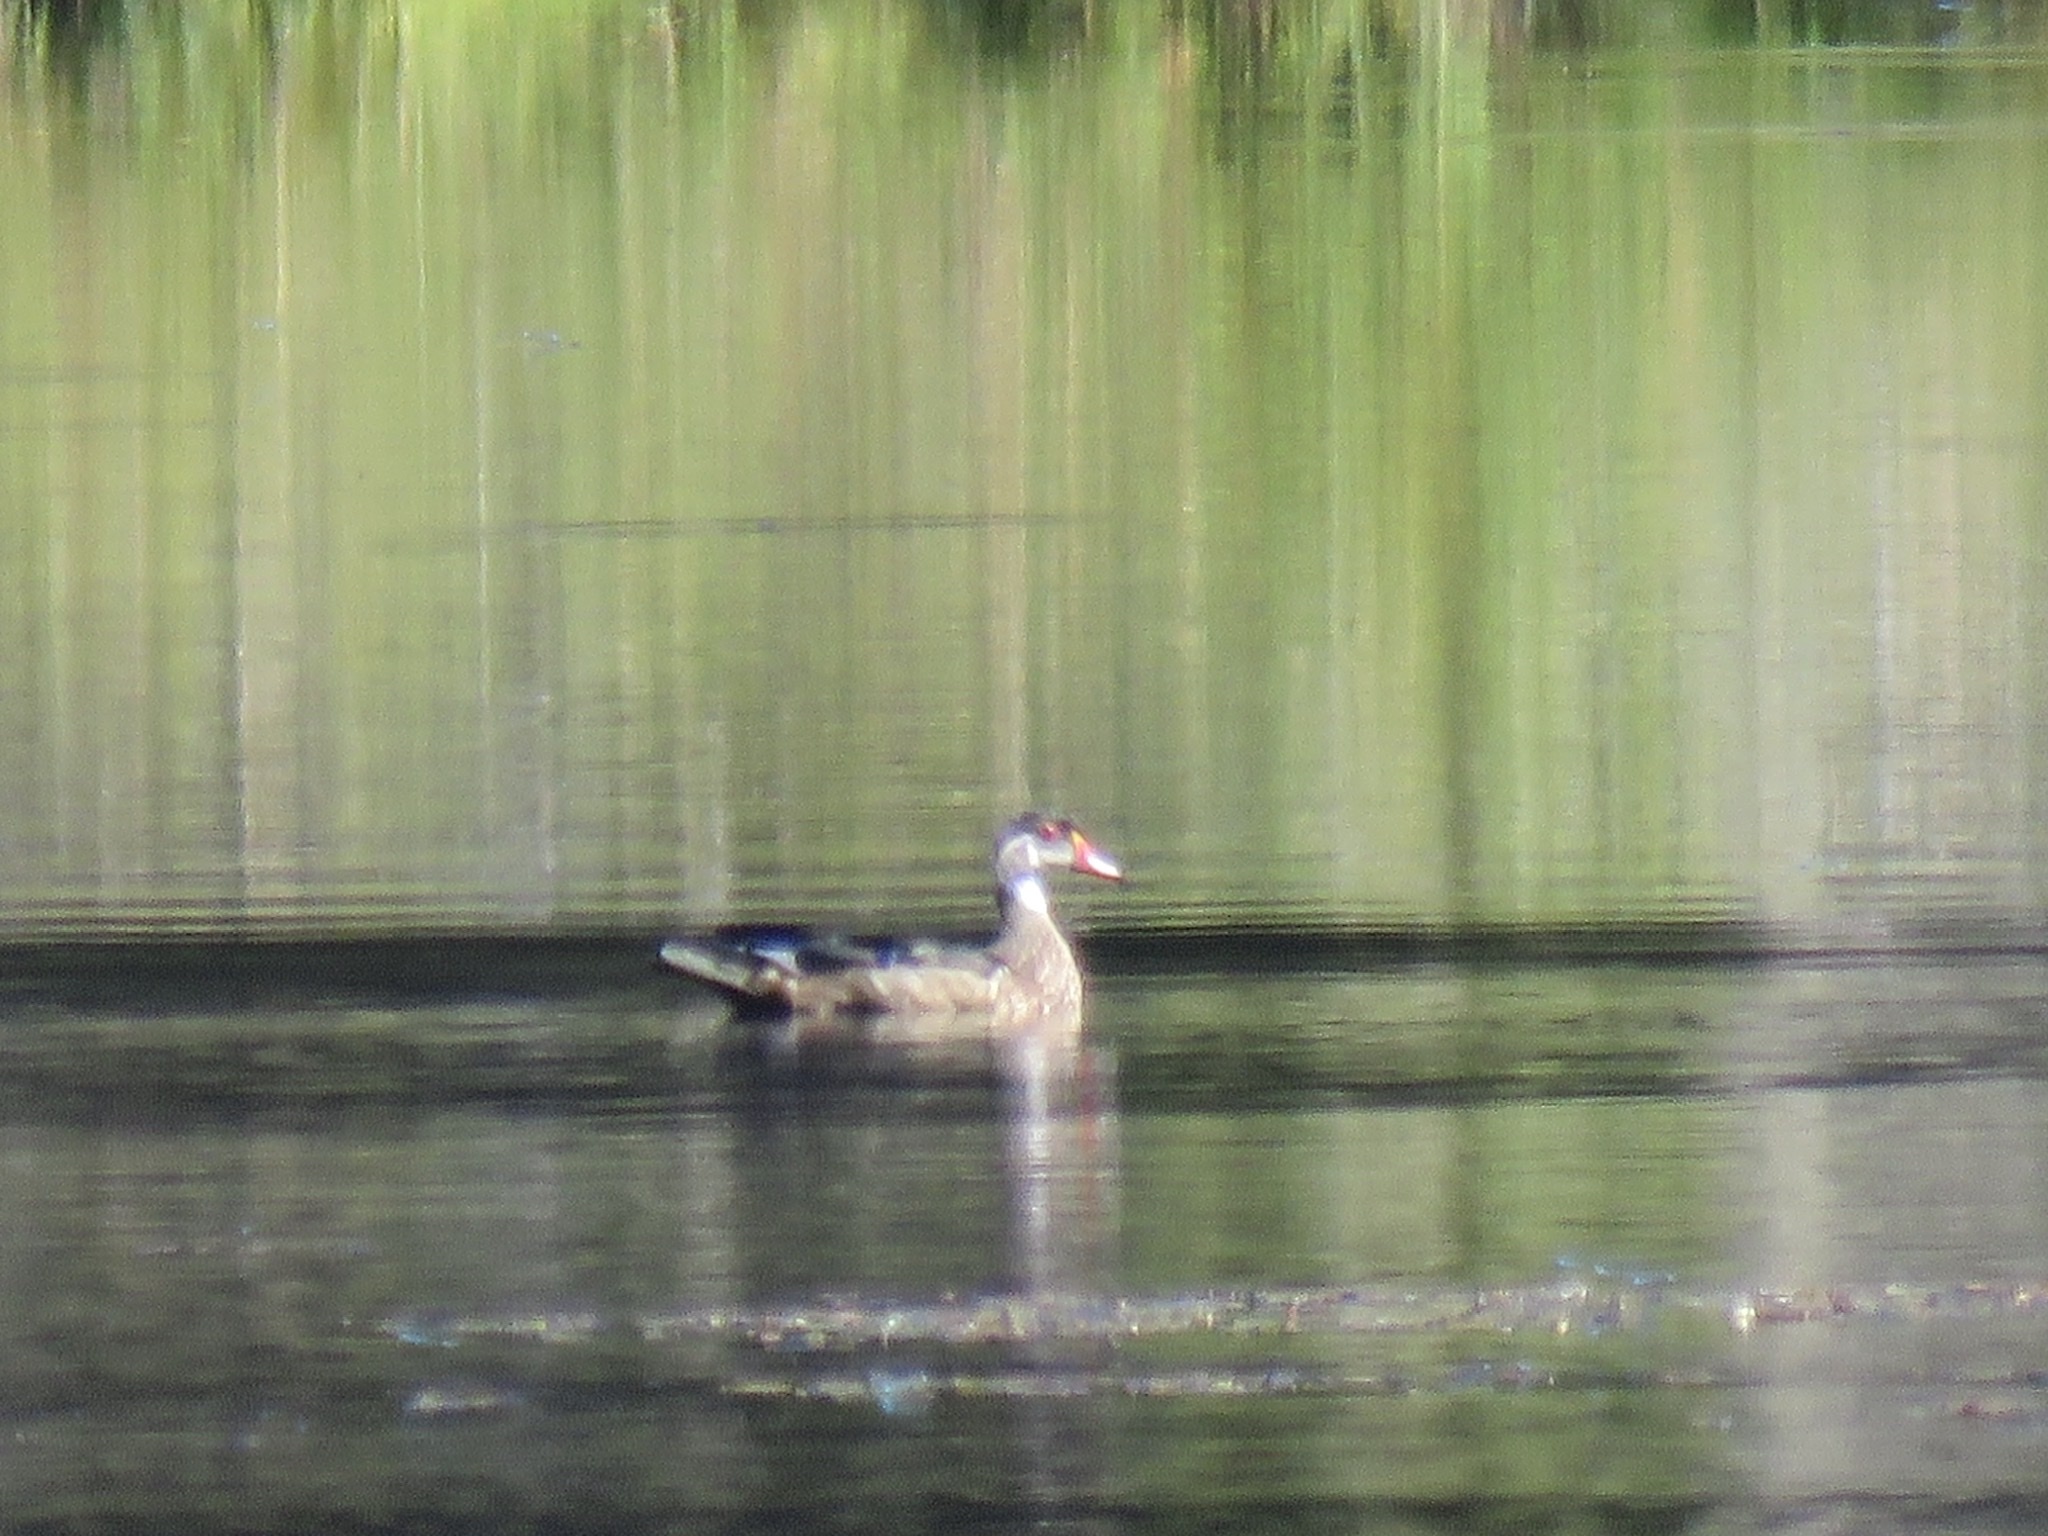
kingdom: Animalia
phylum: Chordata
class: Aves
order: Anseriformes
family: Anatidae
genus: Aix
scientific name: Aix sponsa
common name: Wood duck
